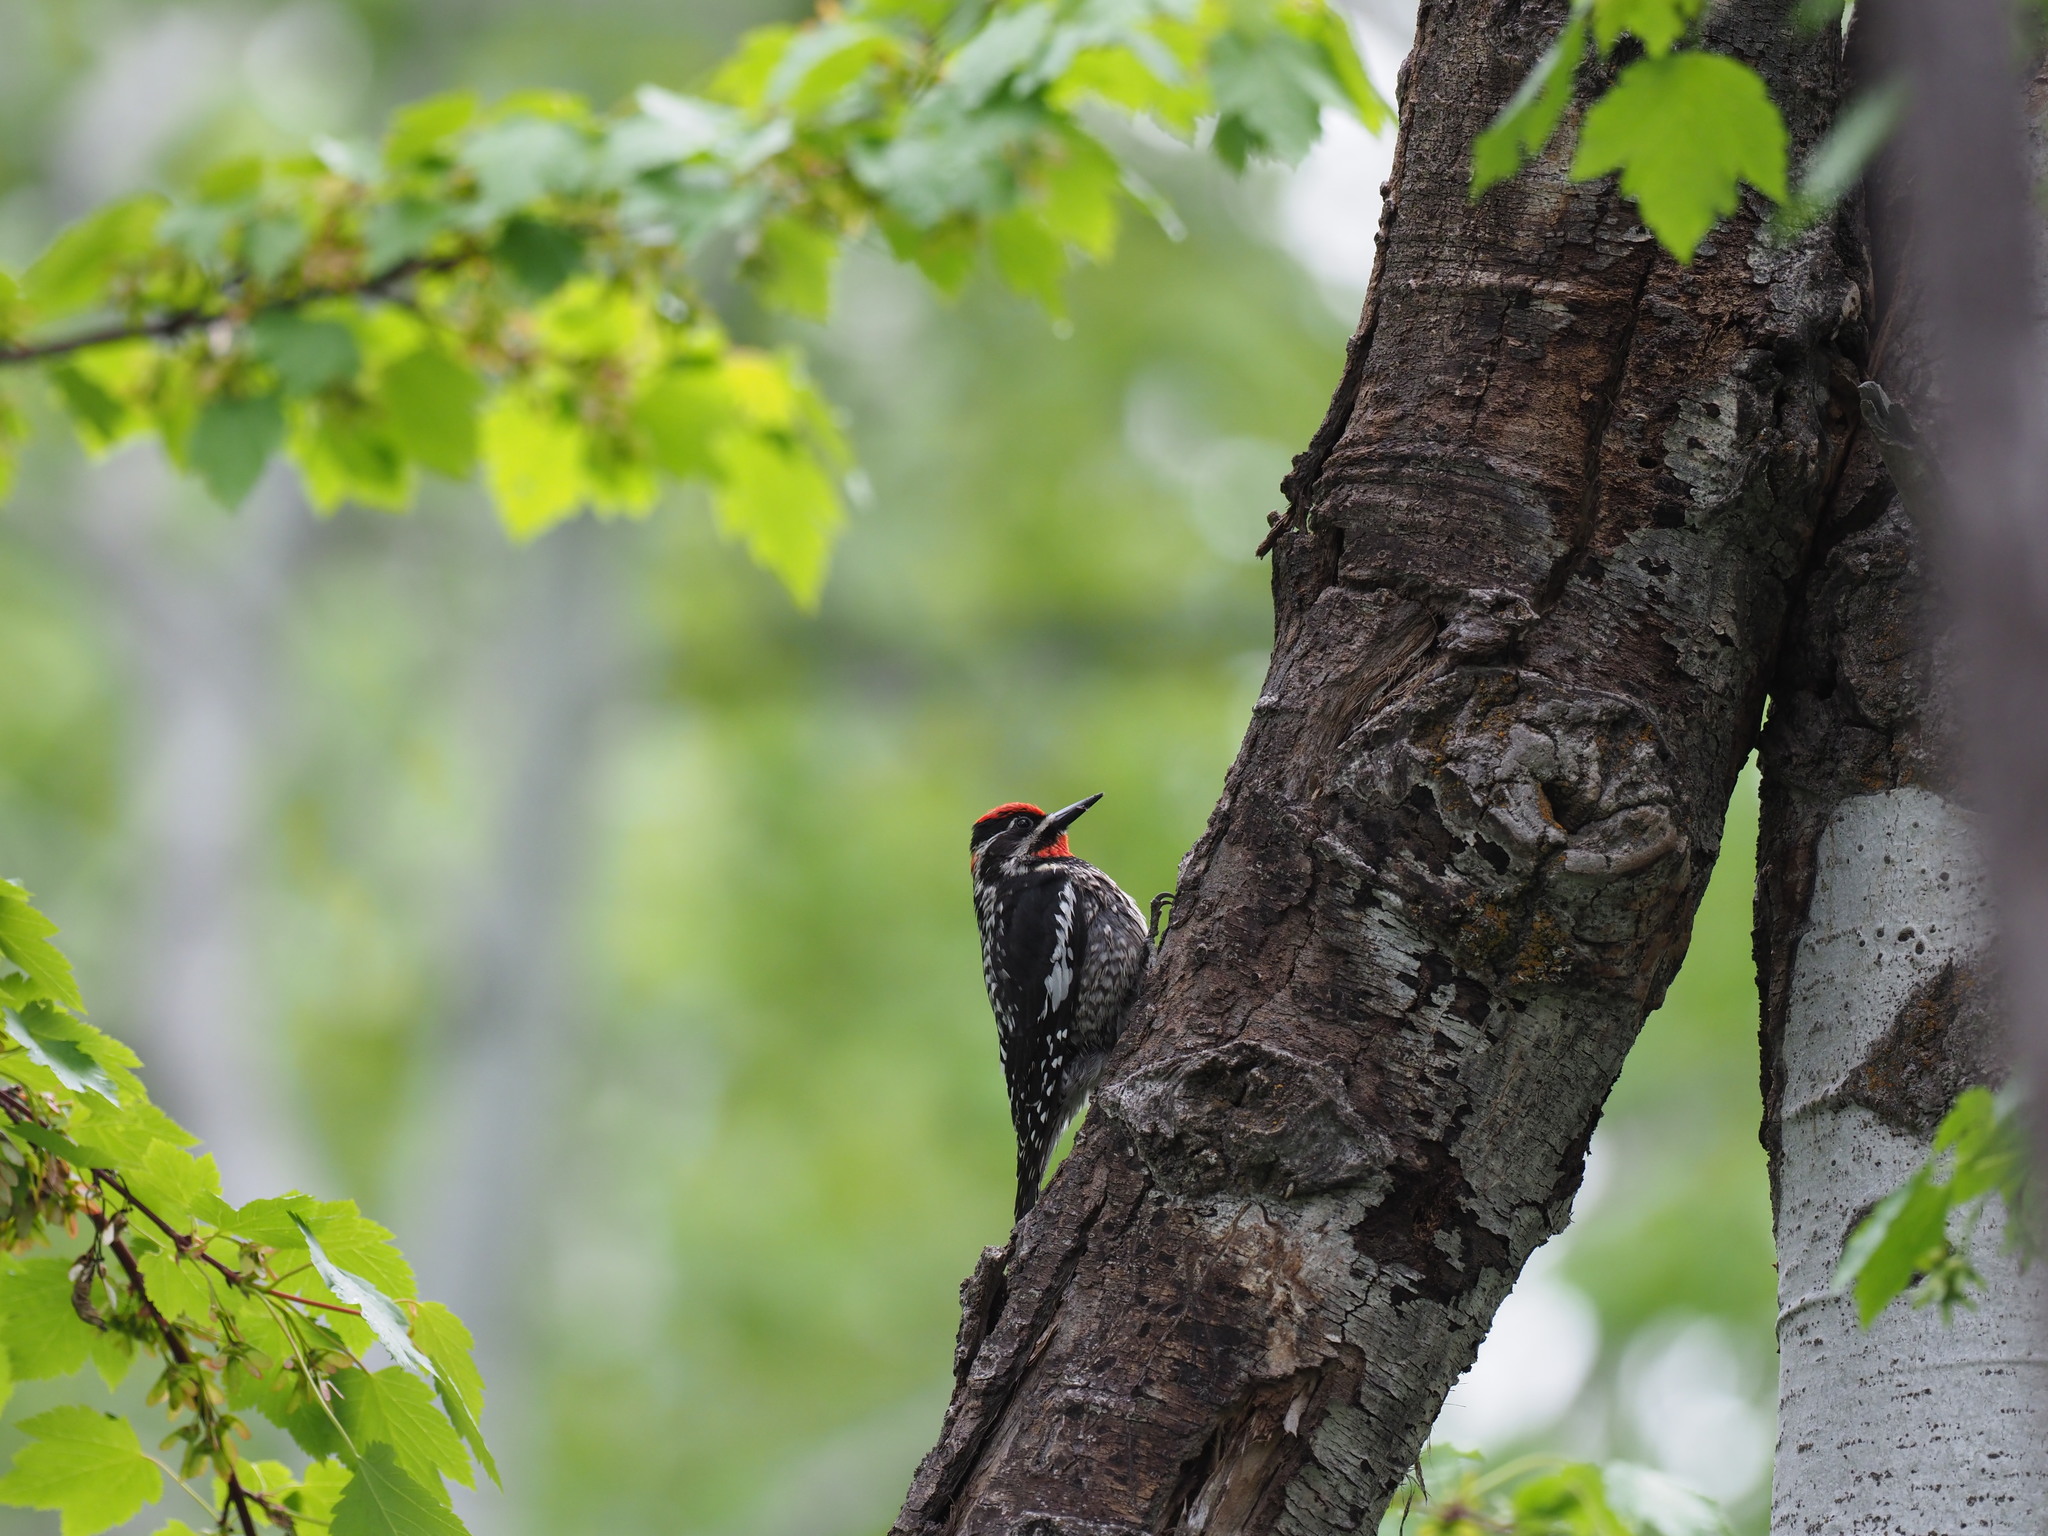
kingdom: Animalia
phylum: Chordata
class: Aves
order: Piciformes
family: Picidae
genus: Sphyrapicus
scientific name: Sphyrapicus nuchalis
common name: Red-naped sapsucker
